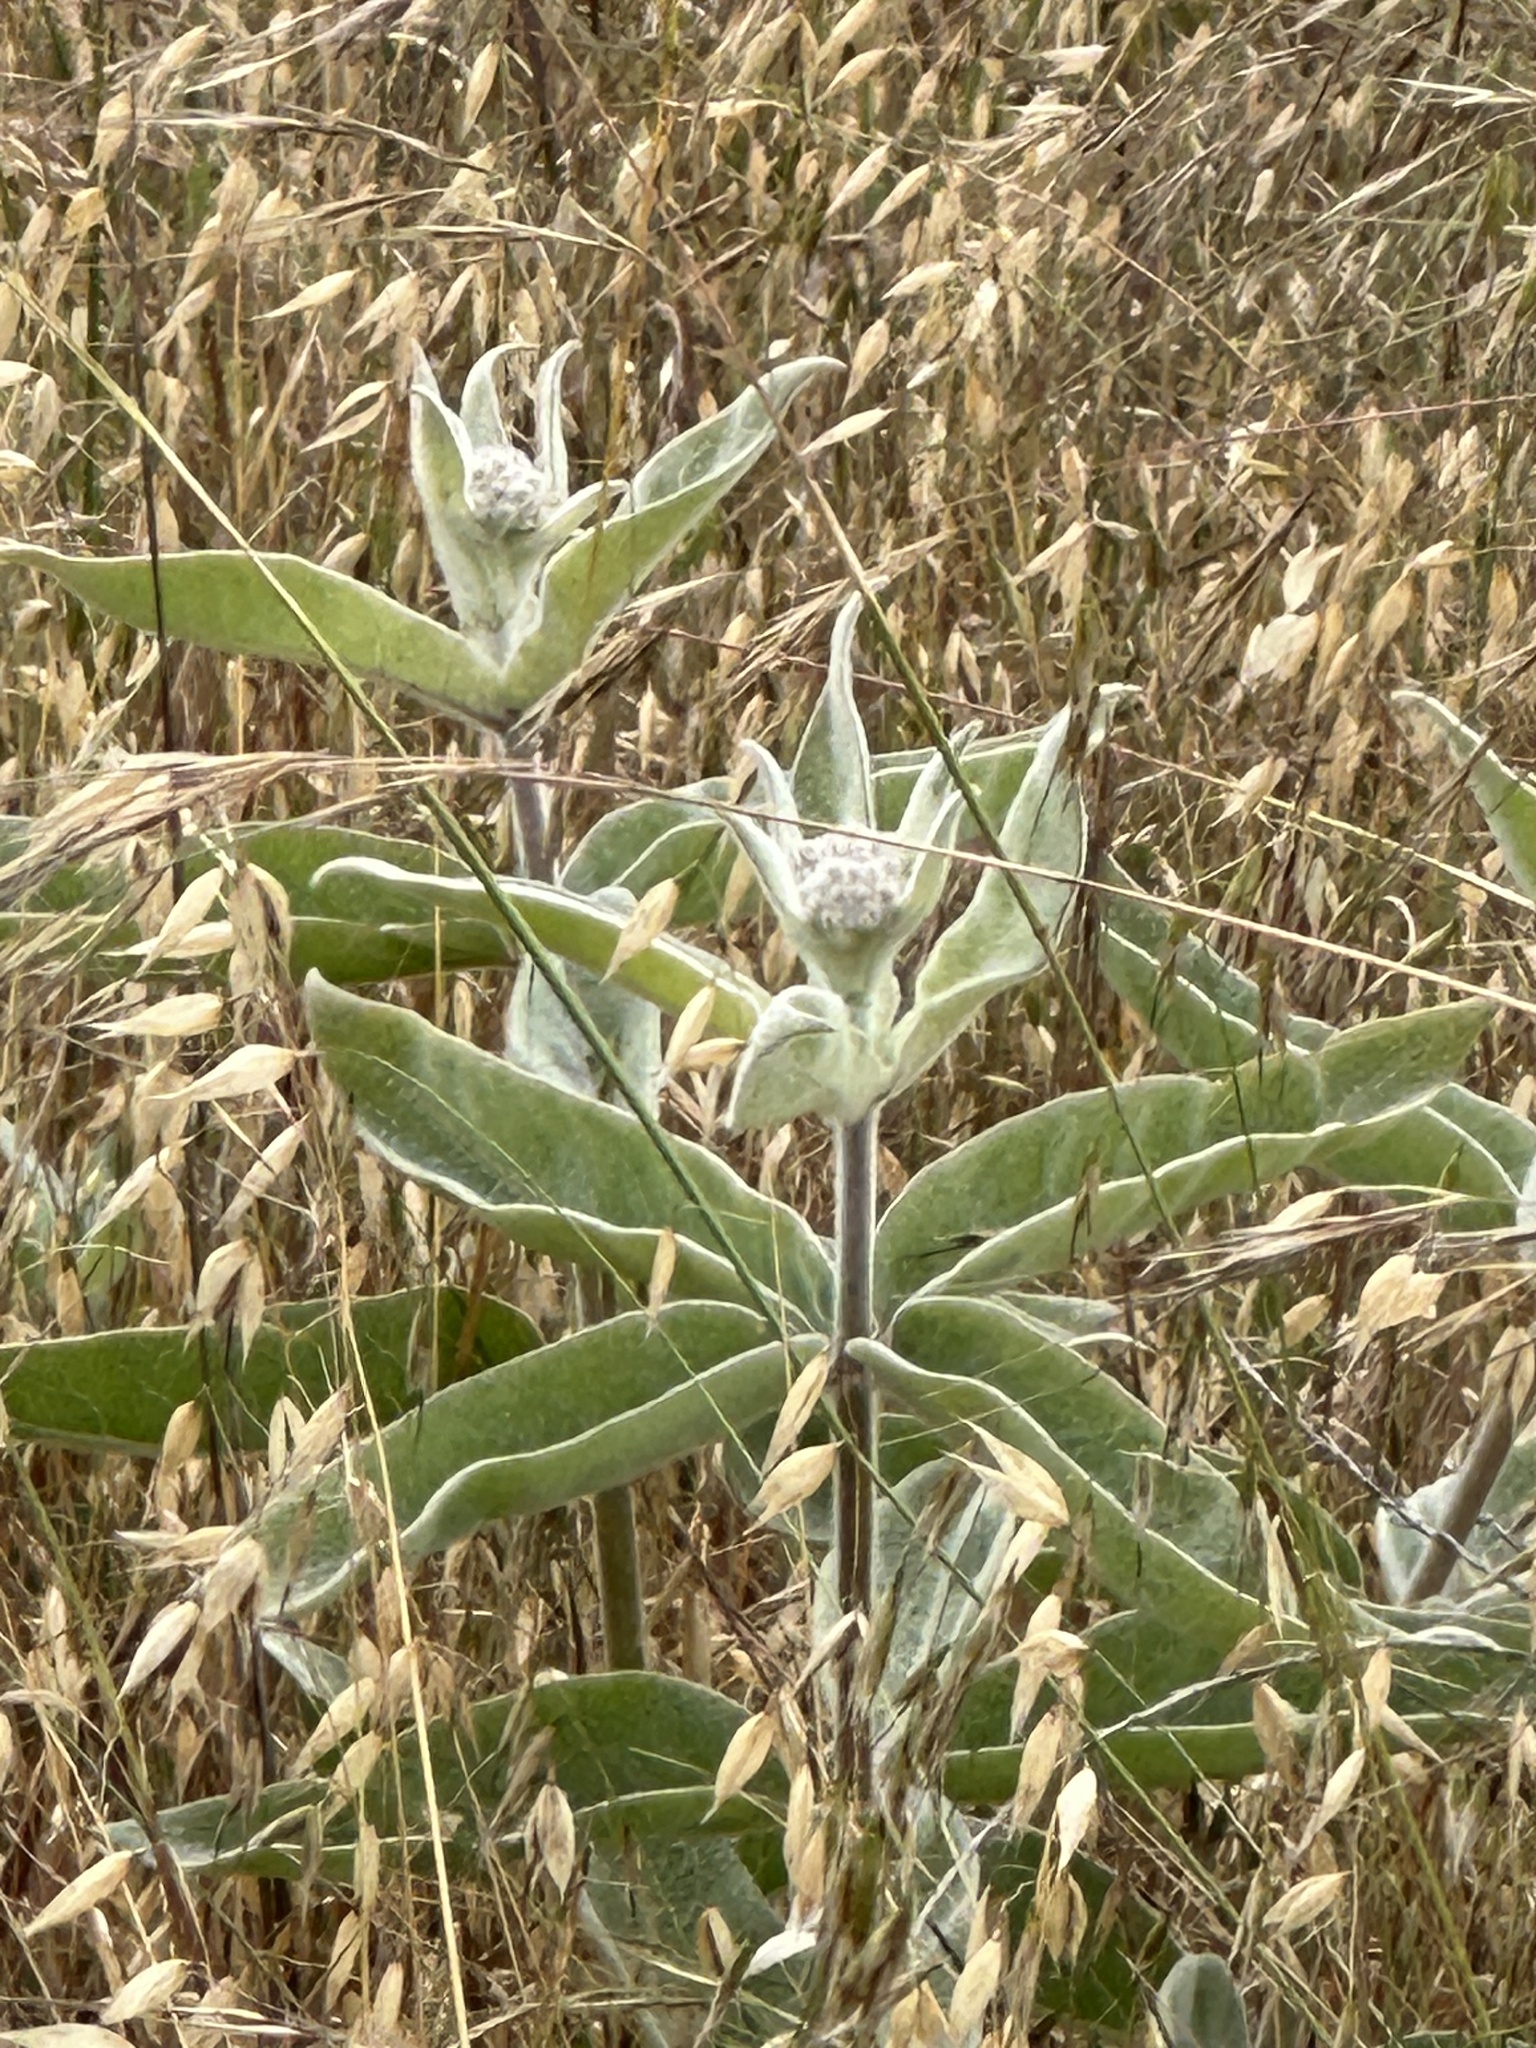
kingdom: Plantae
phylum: Tracheophyta
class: Magnoliopsida
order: Gentianales
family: Apocynaceae
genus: Asclepias
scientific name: Asclepias eriocarpa
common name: Indian milkweed
